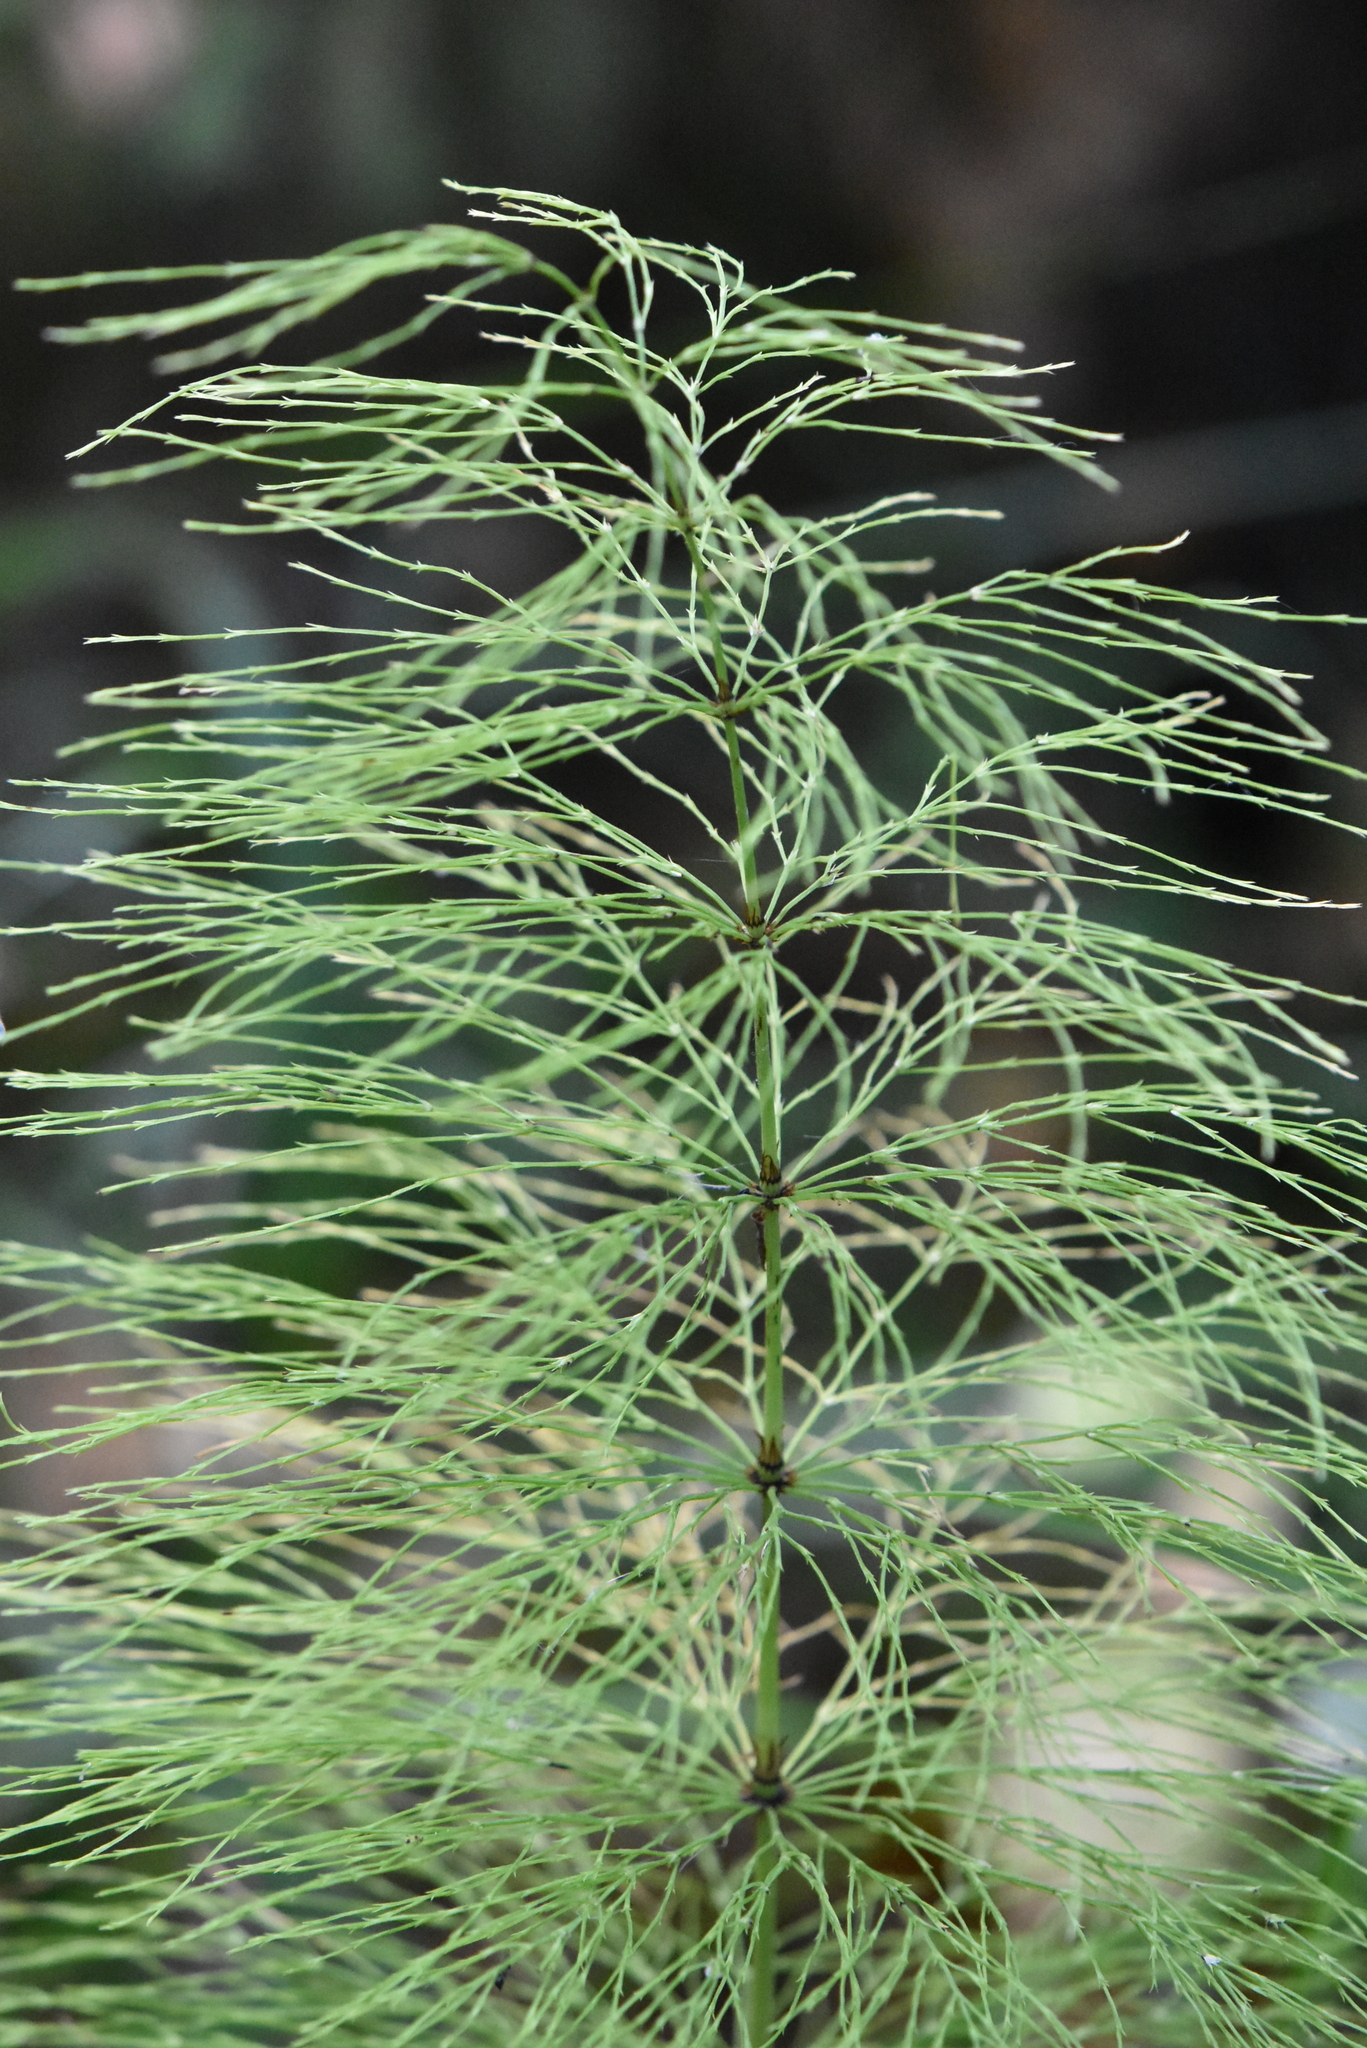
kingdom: Plantae
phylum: Tracheophyta
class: Polypodiopsida
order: Equisetales
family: Equisetaceae
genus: Equisetum
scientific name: Equisetum sylvaticum
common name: Wood horsetail
